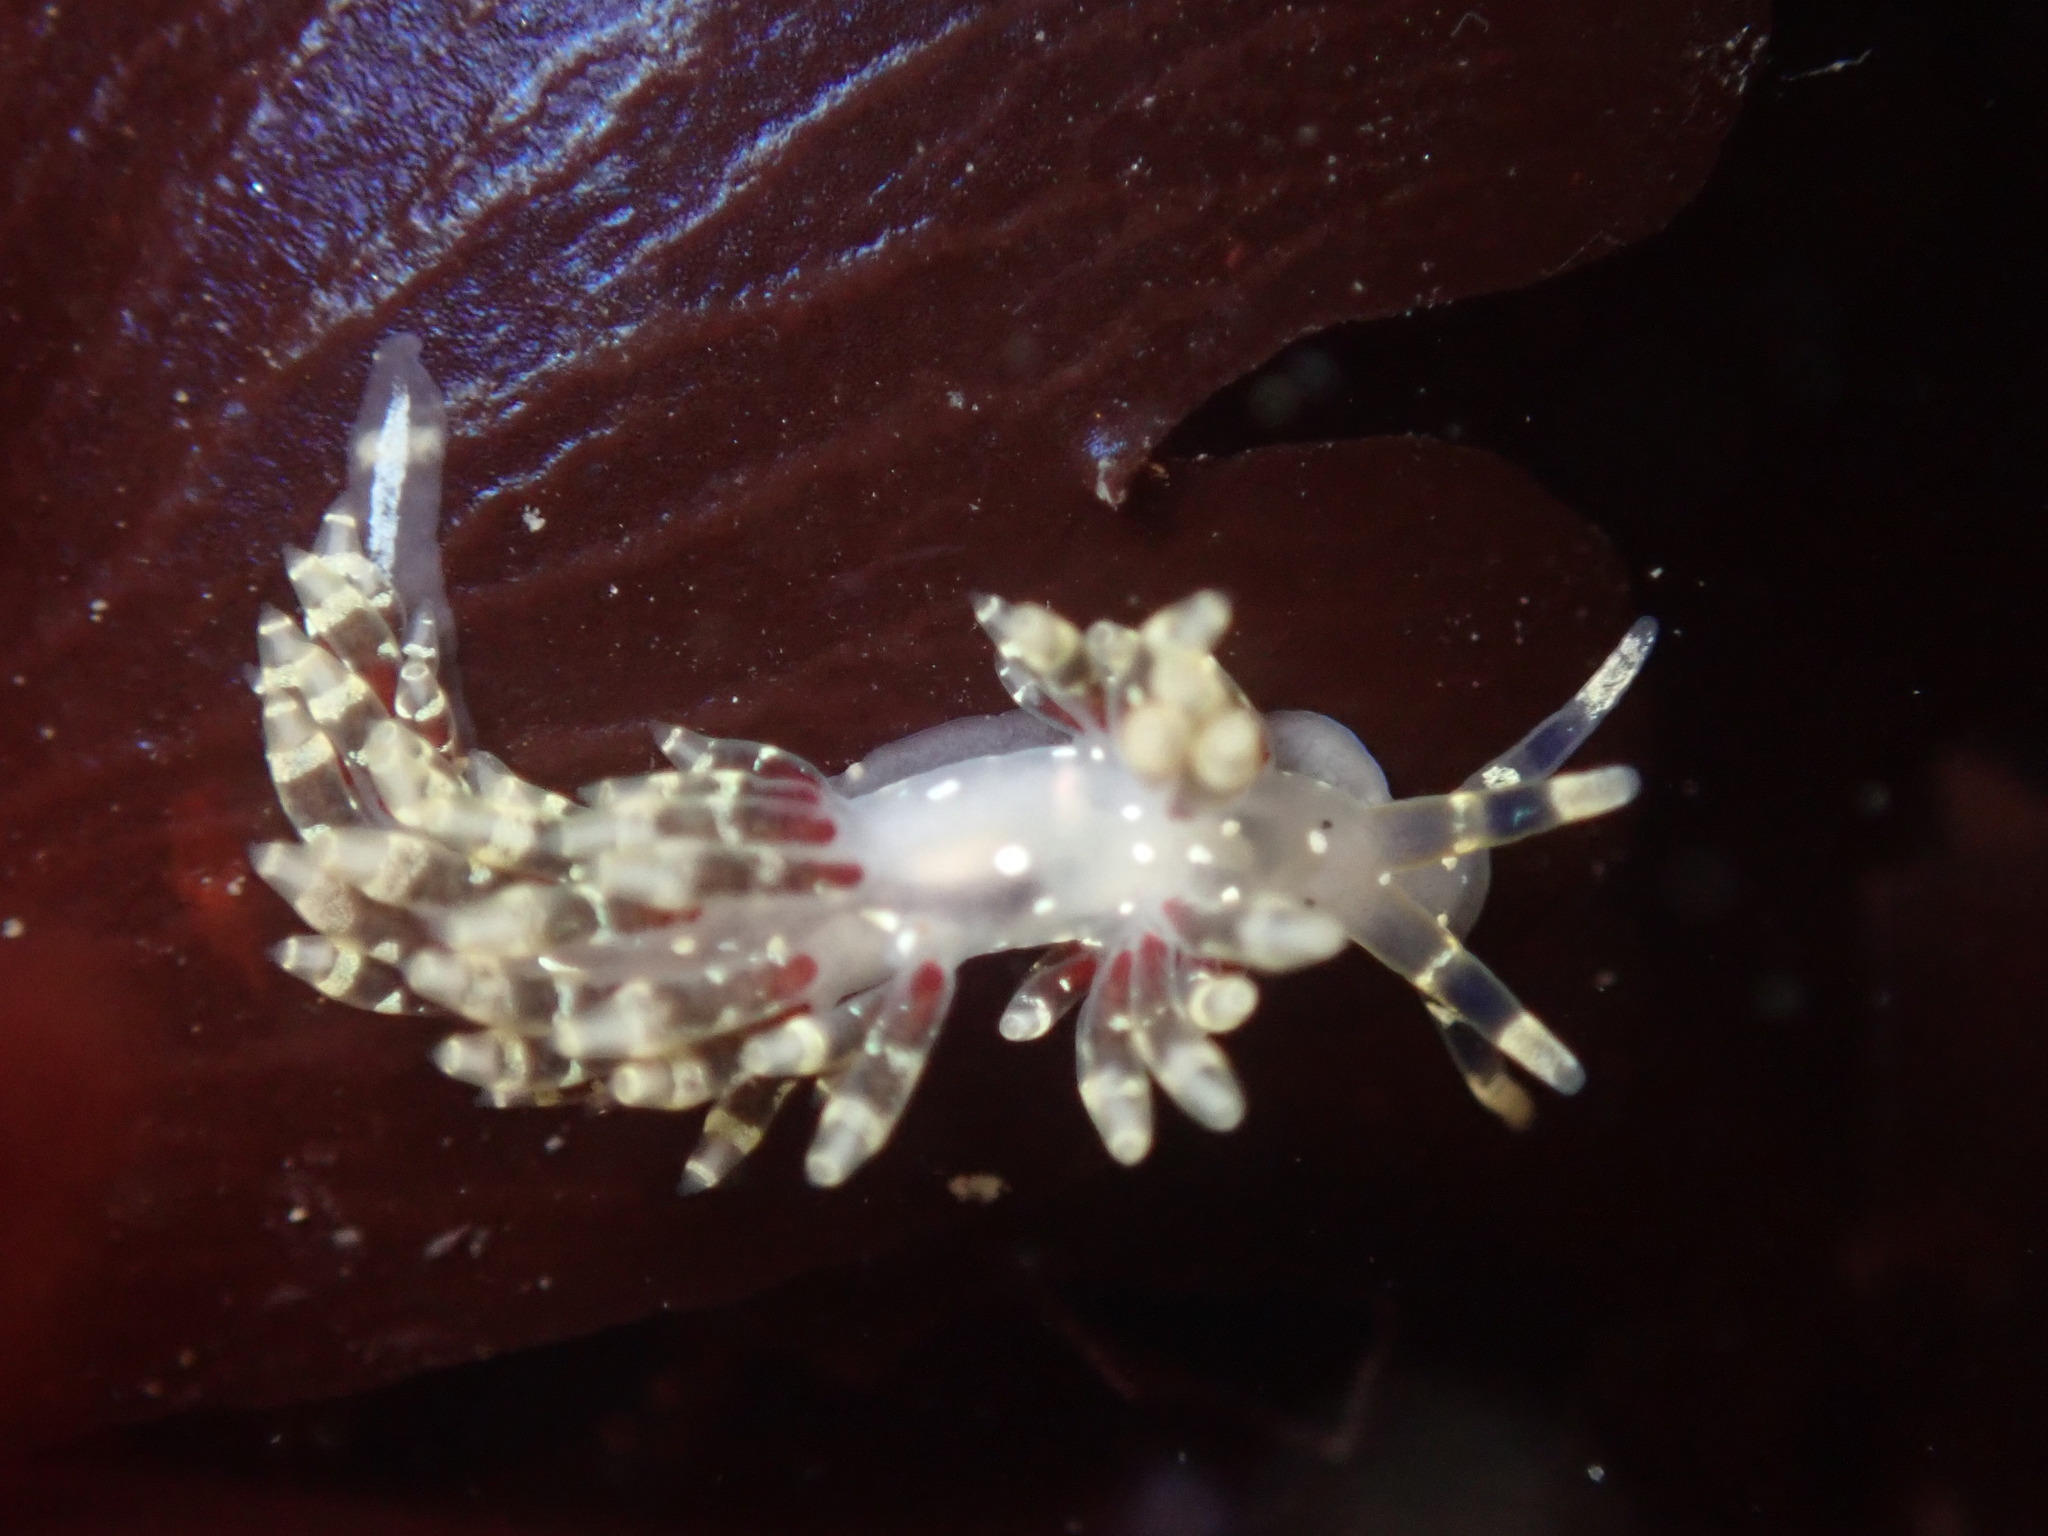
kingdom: Animalia
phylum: Mollusca
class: Gastropoda
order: Nudibranchia
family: Abronicidae
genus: Abronica
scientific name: Abronica abronia
